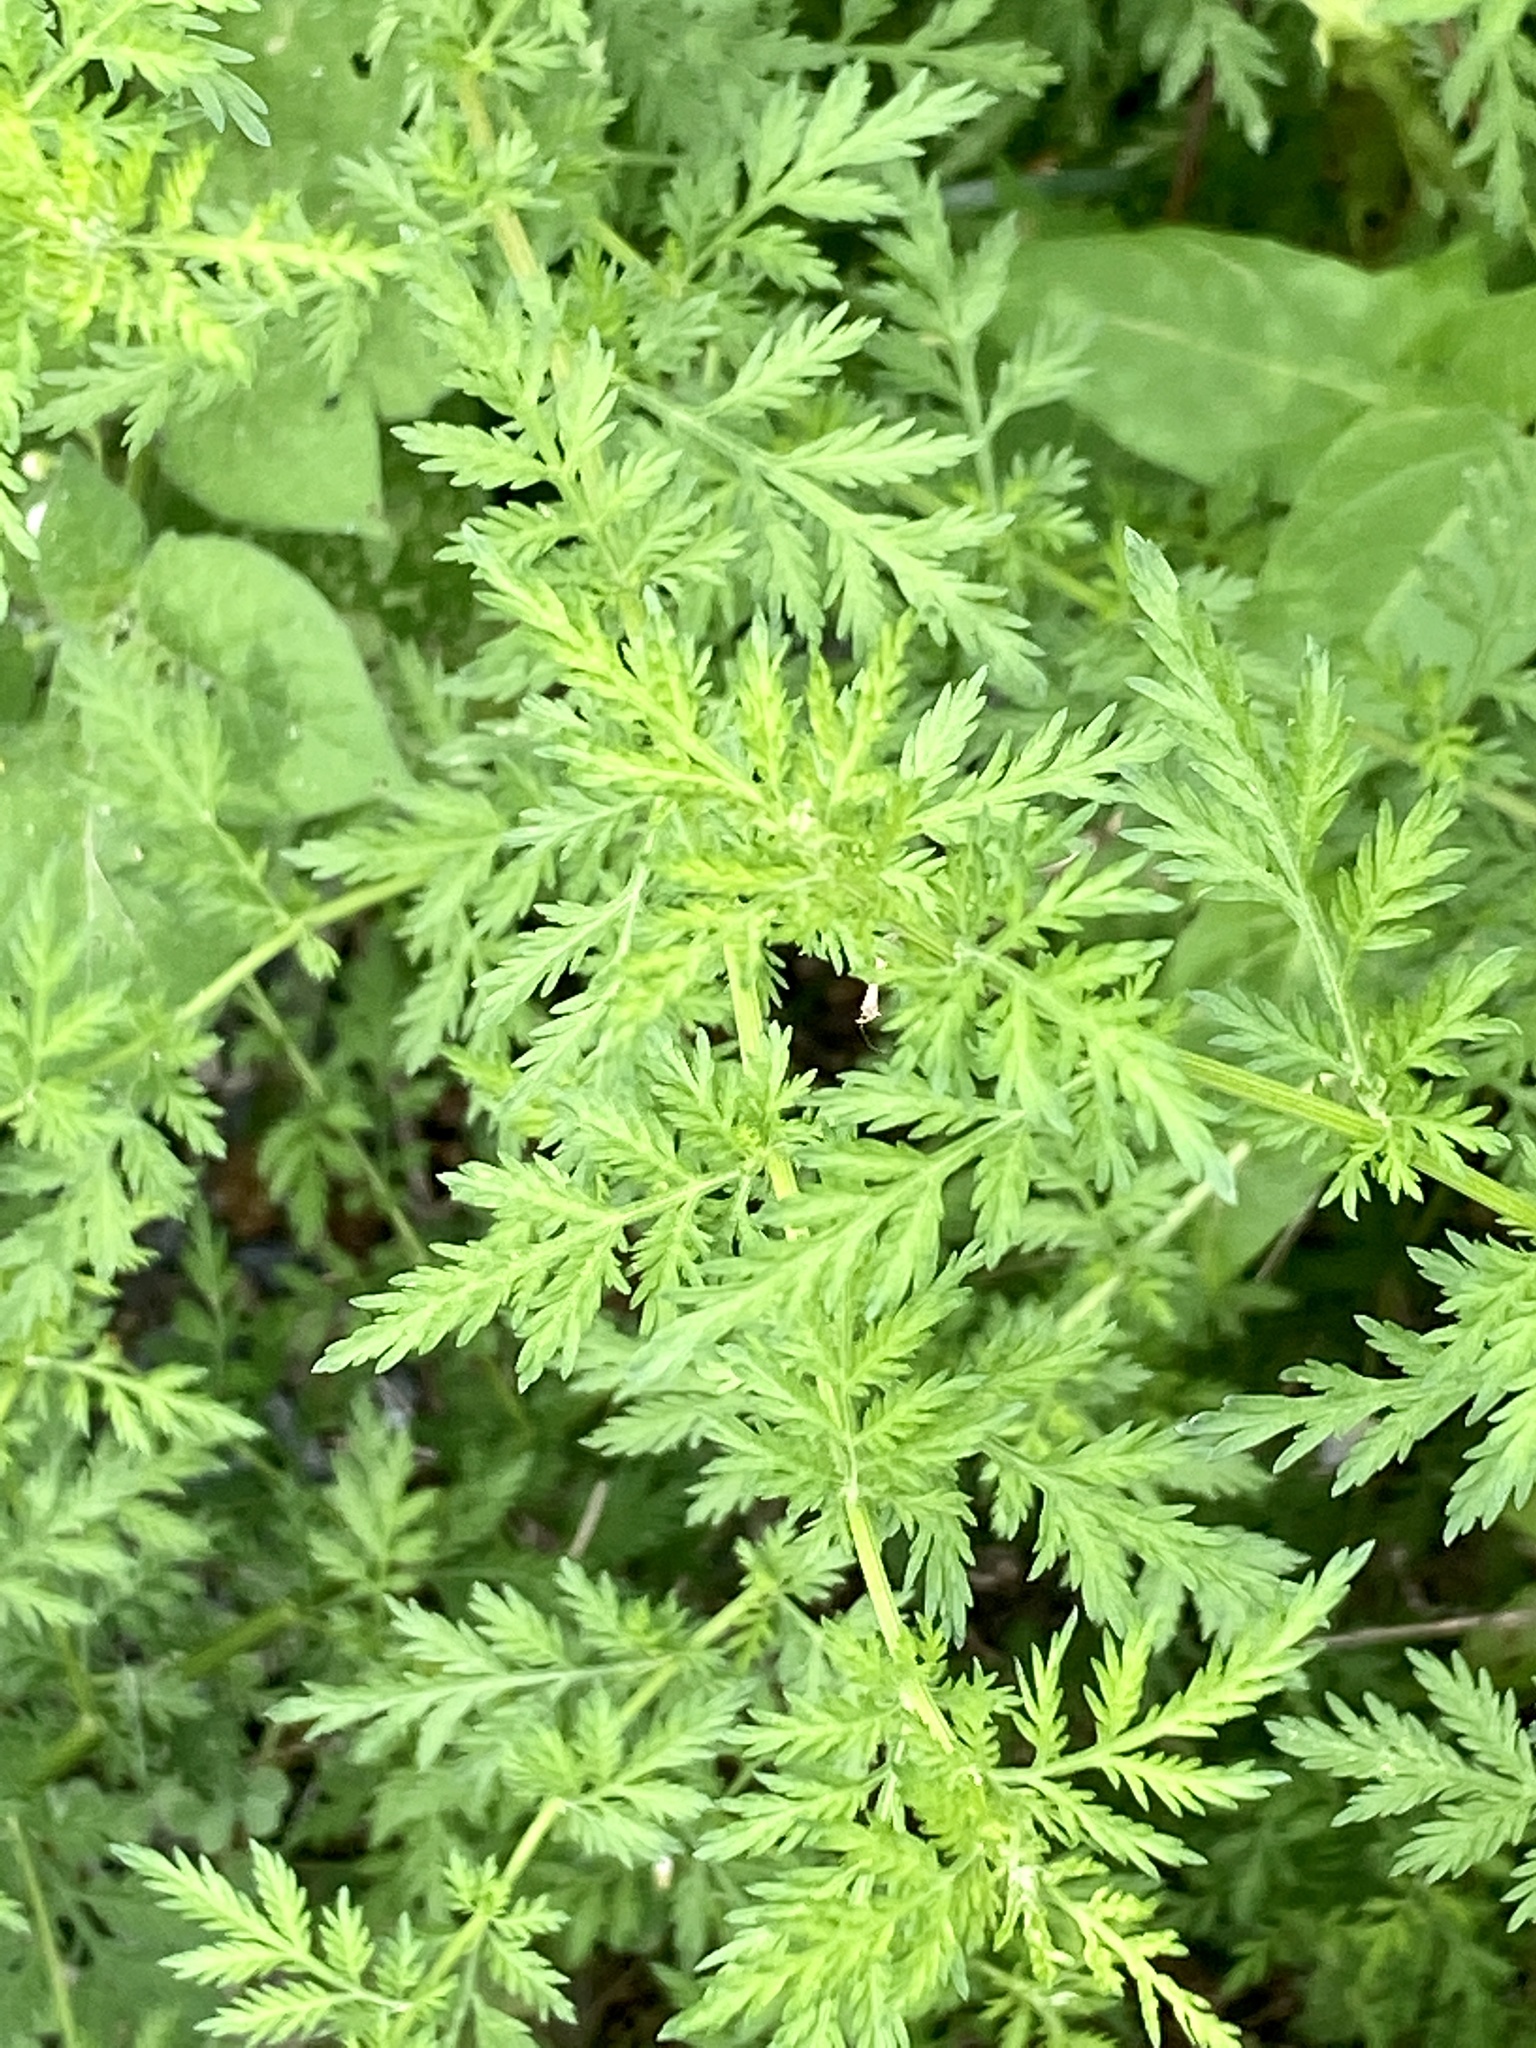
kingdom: Plantae
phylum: Tracheophyta
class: Magnoliopsida
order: Asterales
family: Asteraceae
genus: Artemisia
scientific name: Artemisia annua
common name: Sweet sagewort
